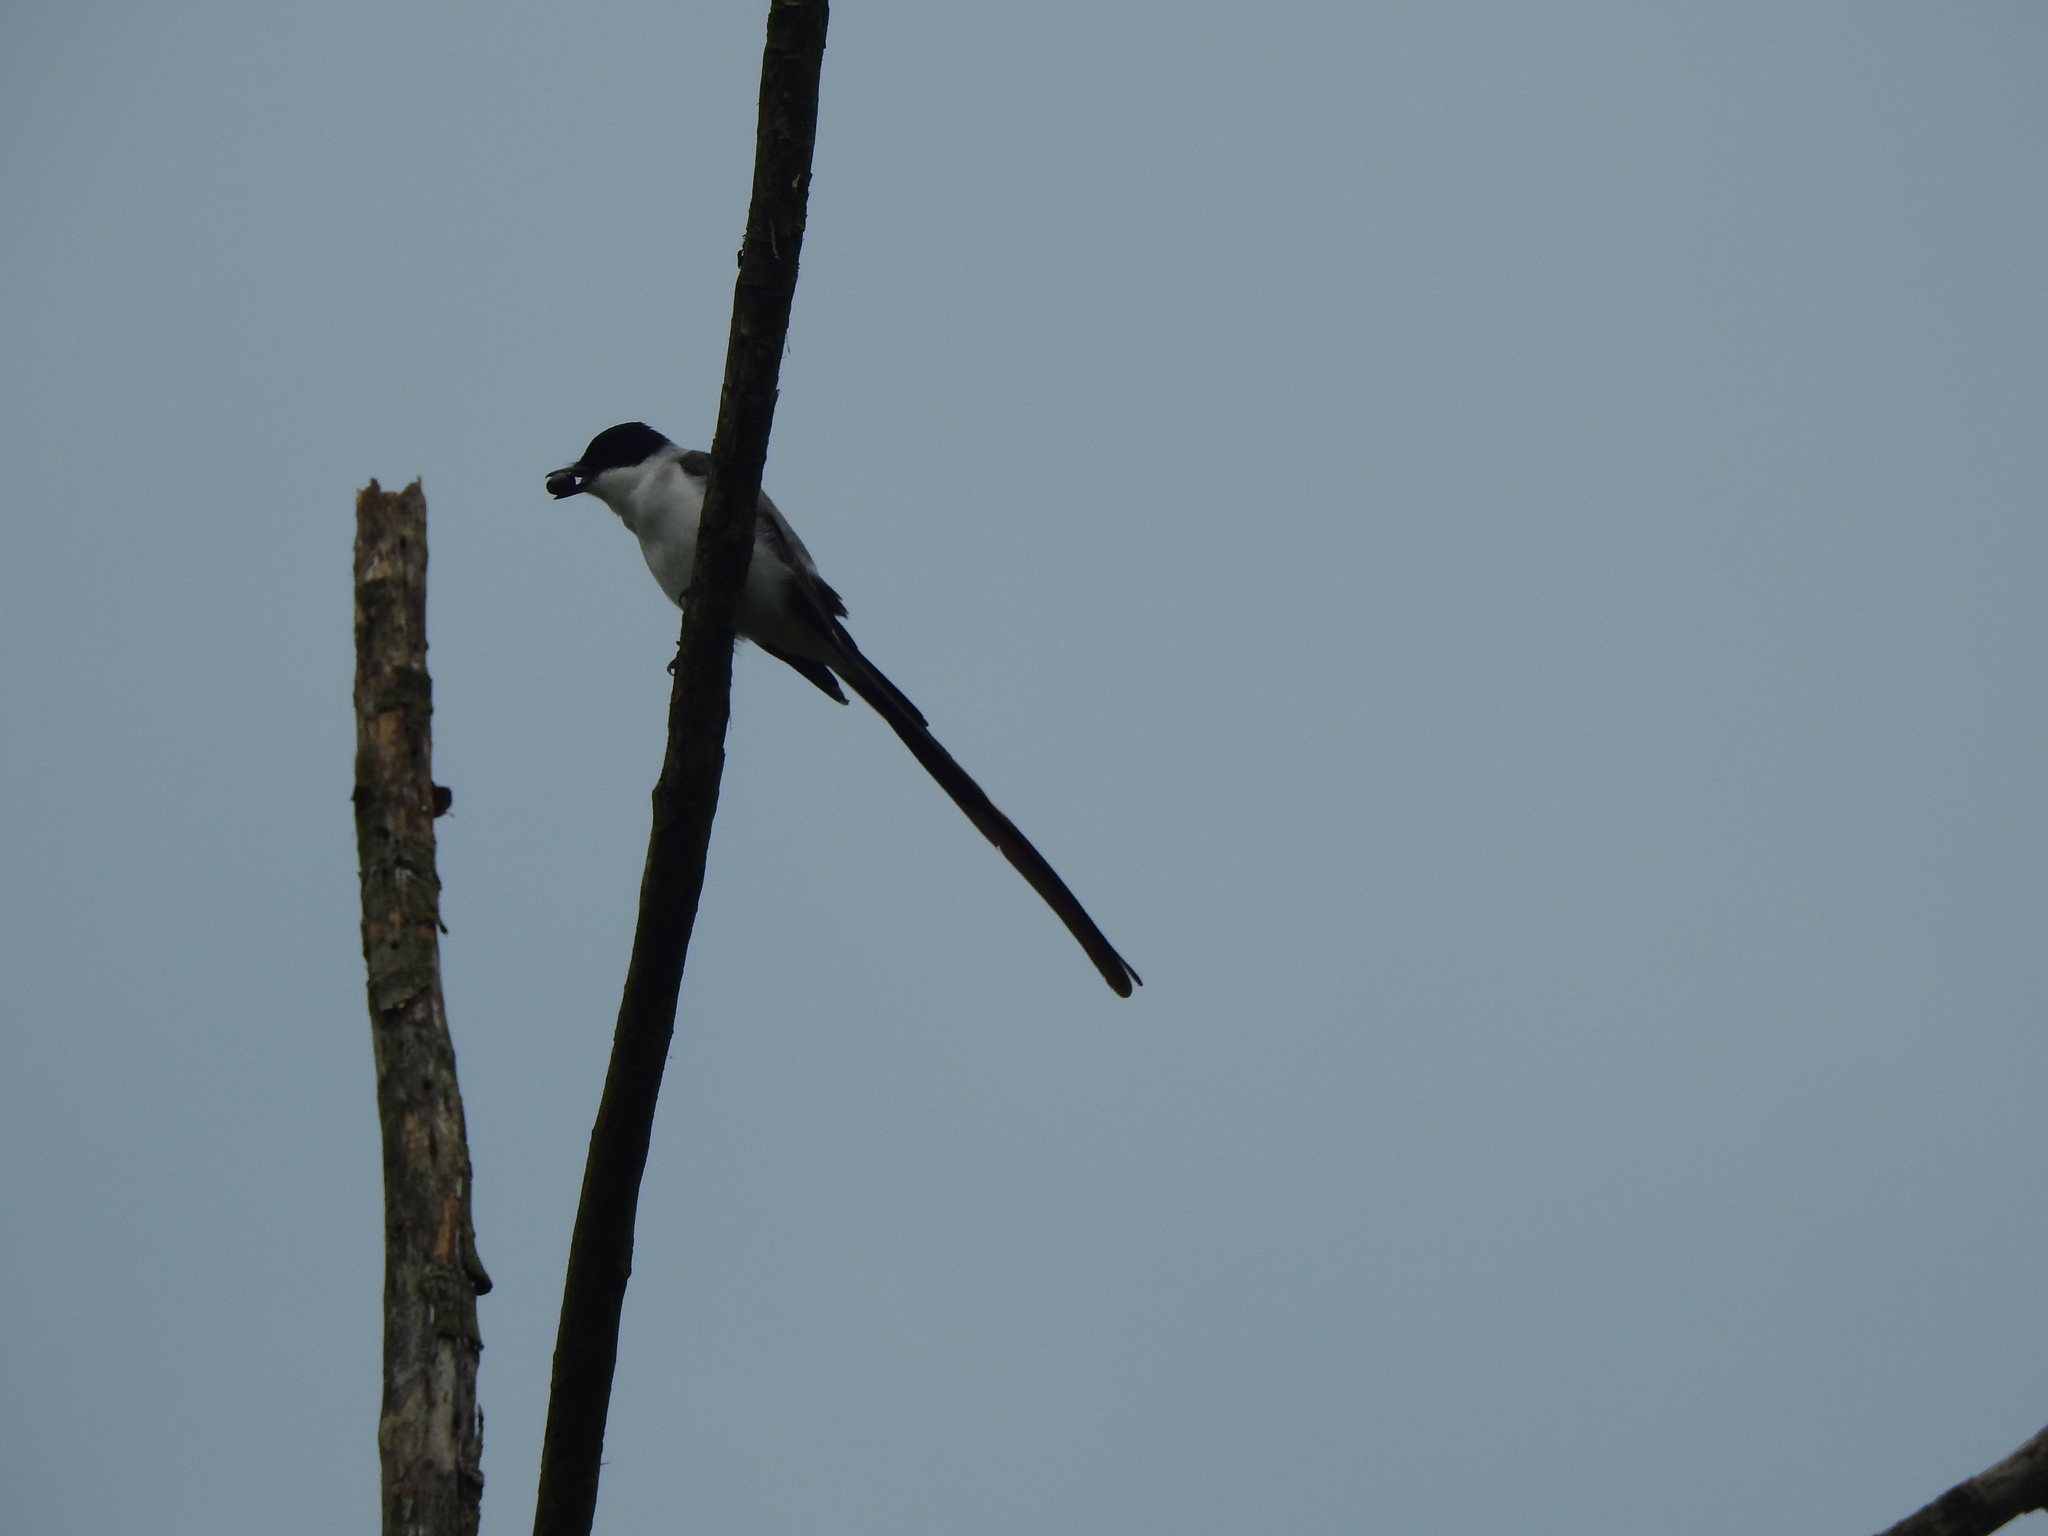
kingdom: Animalia
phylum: Chordata
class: Aves
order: Passeriformes
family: Tyrannidae
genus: Tyrannus
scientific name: Tyrannus savana
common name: Fork-tailed flycatcher
